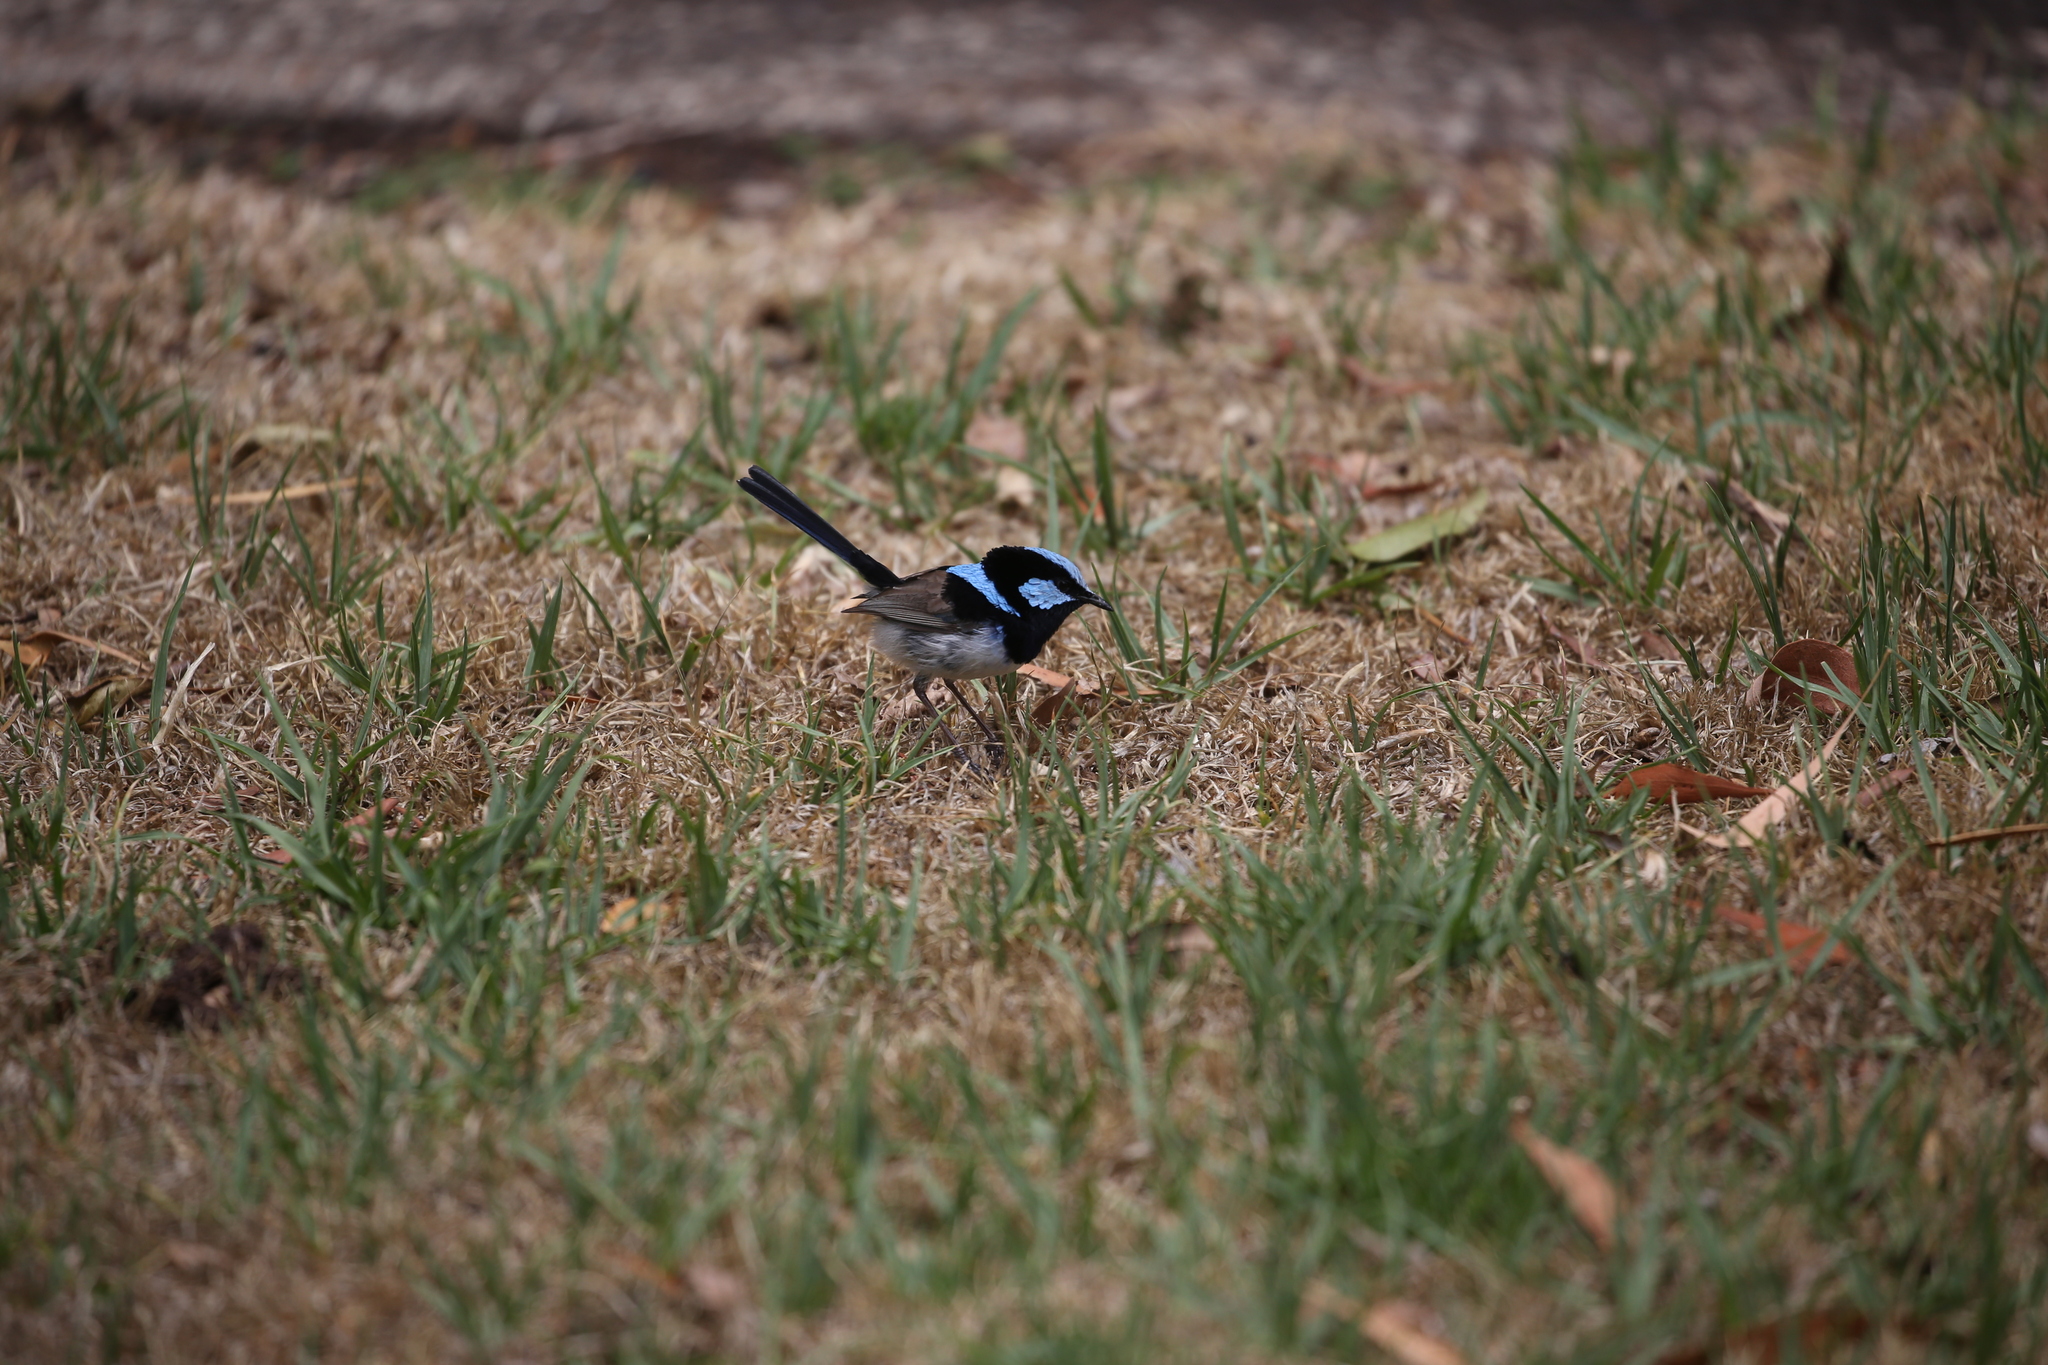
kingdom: Animalia
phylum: Chordata
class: Aves
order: Passeriformes
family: Maluridae
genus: Malurus
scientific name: Malurus cyaneus
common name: Superb fairywren
